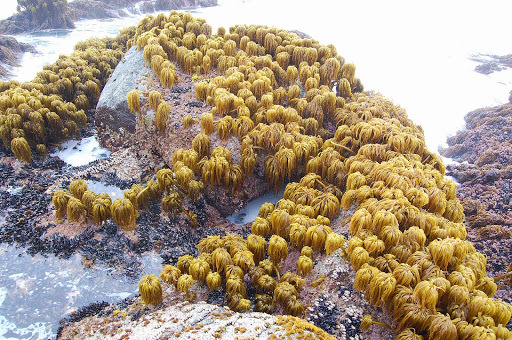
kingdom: Chromista
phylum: Ochrophyta
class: Phaeophyceae
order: Laminariales
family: Laminariaceae
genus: Postelsia
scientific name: Postelsia palmiformis
